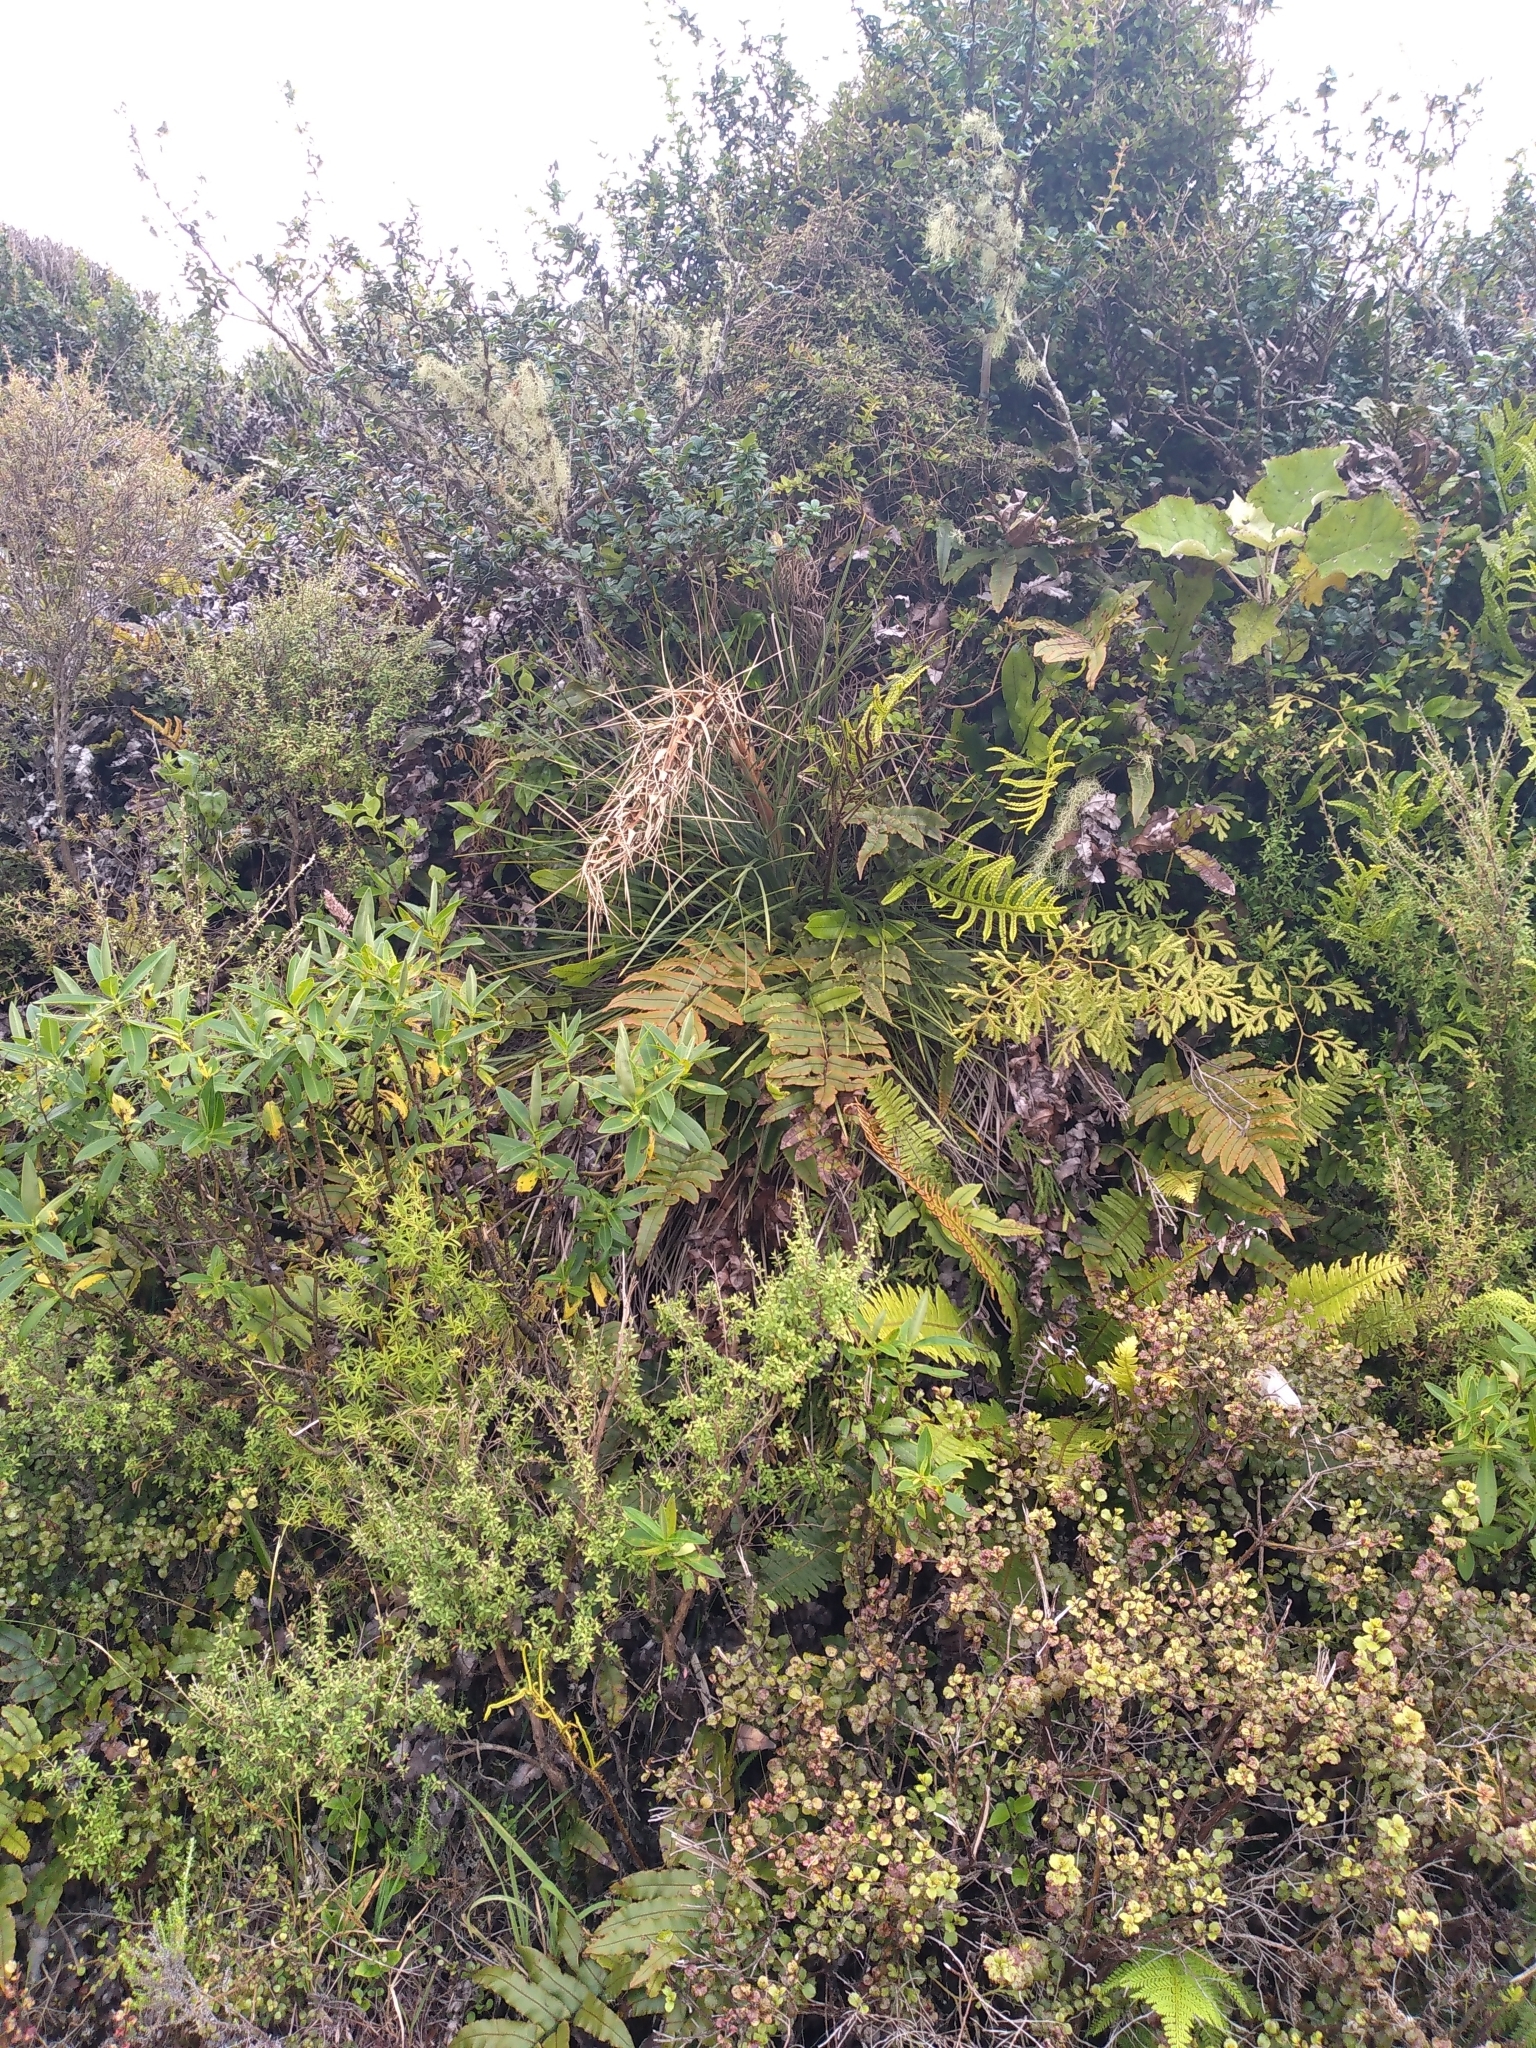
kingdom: Plantae
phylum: Tracheophyta
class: Magnoliopsida
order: Apiales
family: Apiaceae
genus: Aciphylla
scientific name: Aciphylla squarrosa
